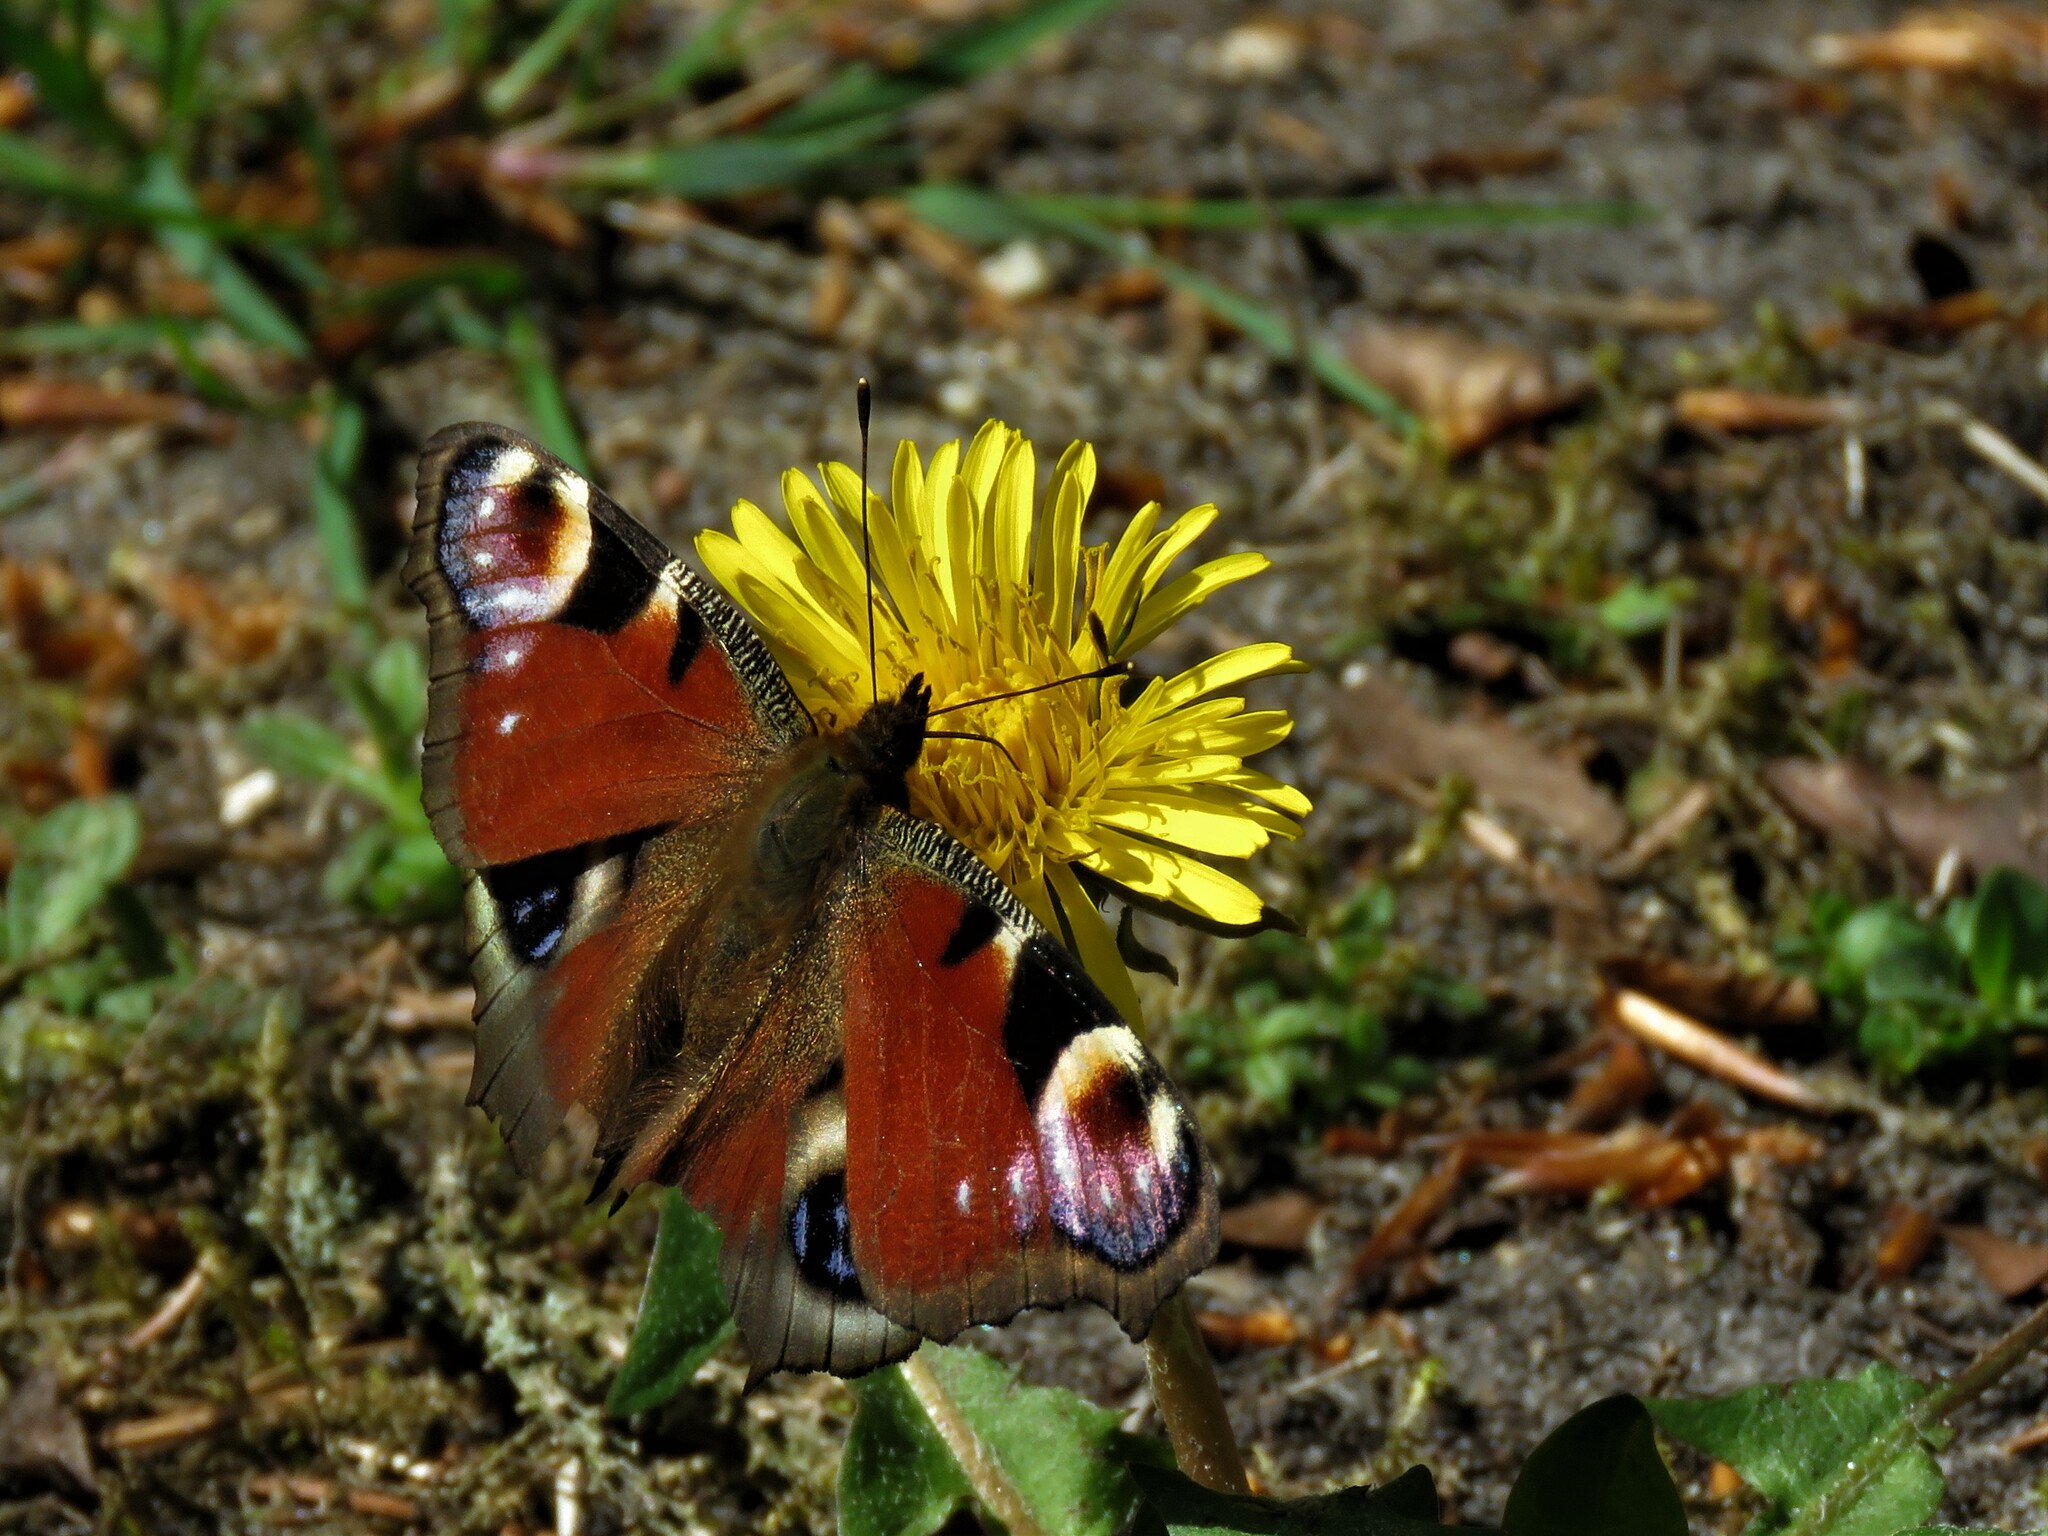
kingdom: Animalia
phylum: Arthropoda
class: Insecta
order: Lepidoptera
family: Nymphalidae
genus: Aglais
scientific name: Aglais io
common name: Peacock
